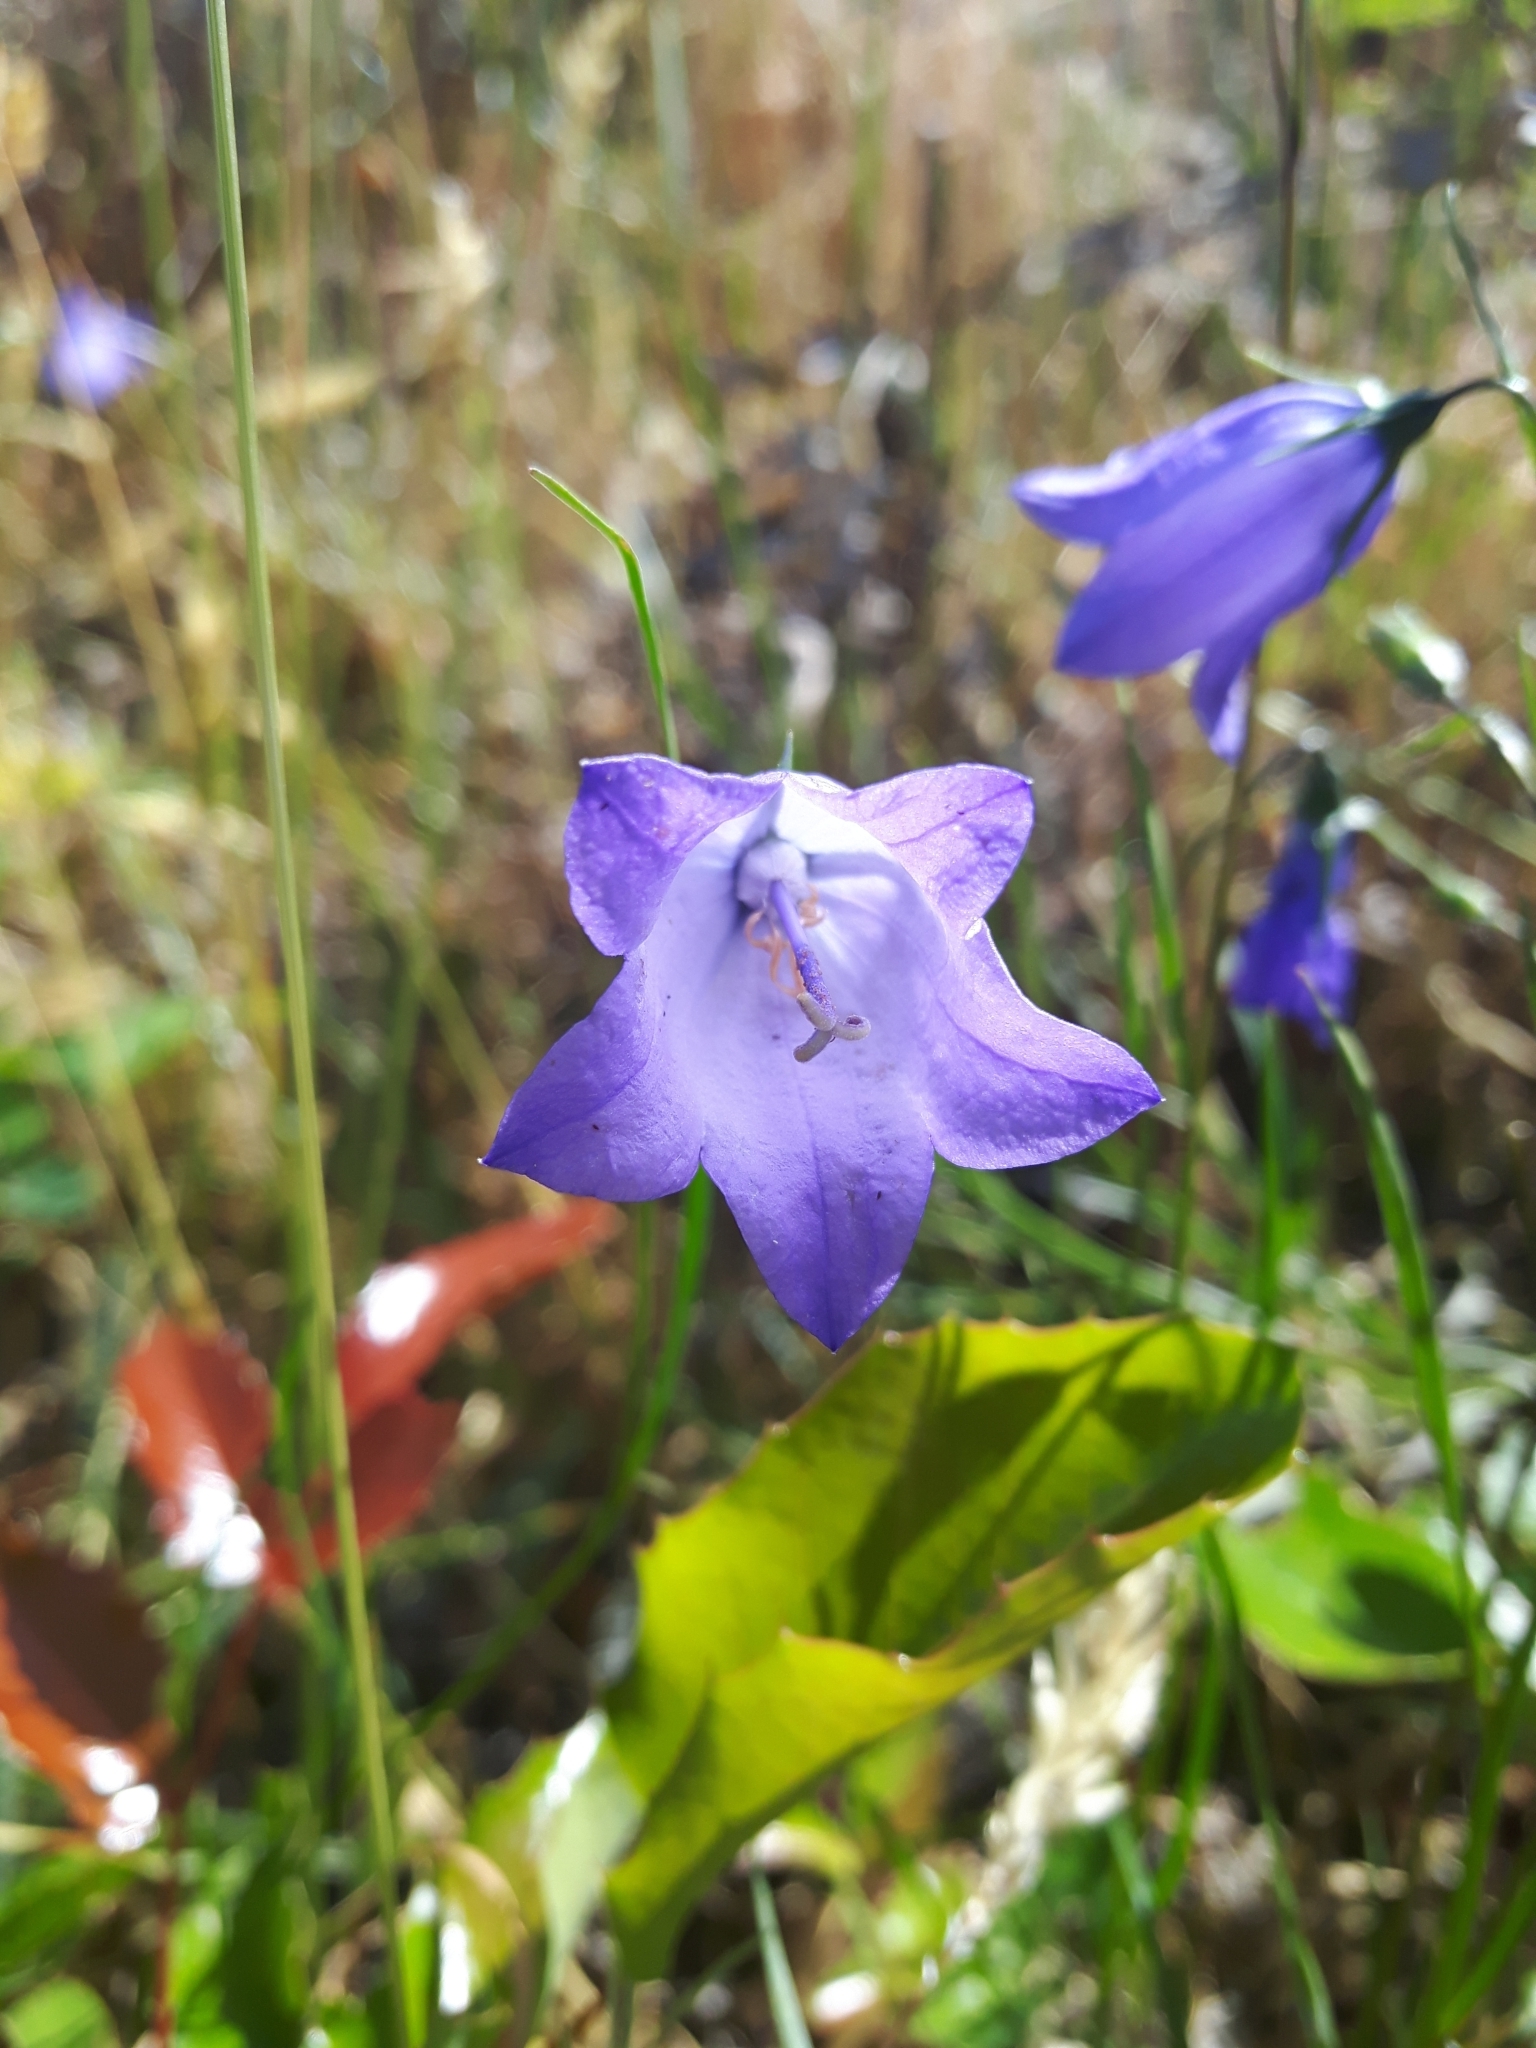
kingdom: Plantae
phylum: Tracheophyta
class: Magnoliopsida
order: Asterales
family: Campanulaceae
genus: Campanula
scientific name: Campanula alaskana
